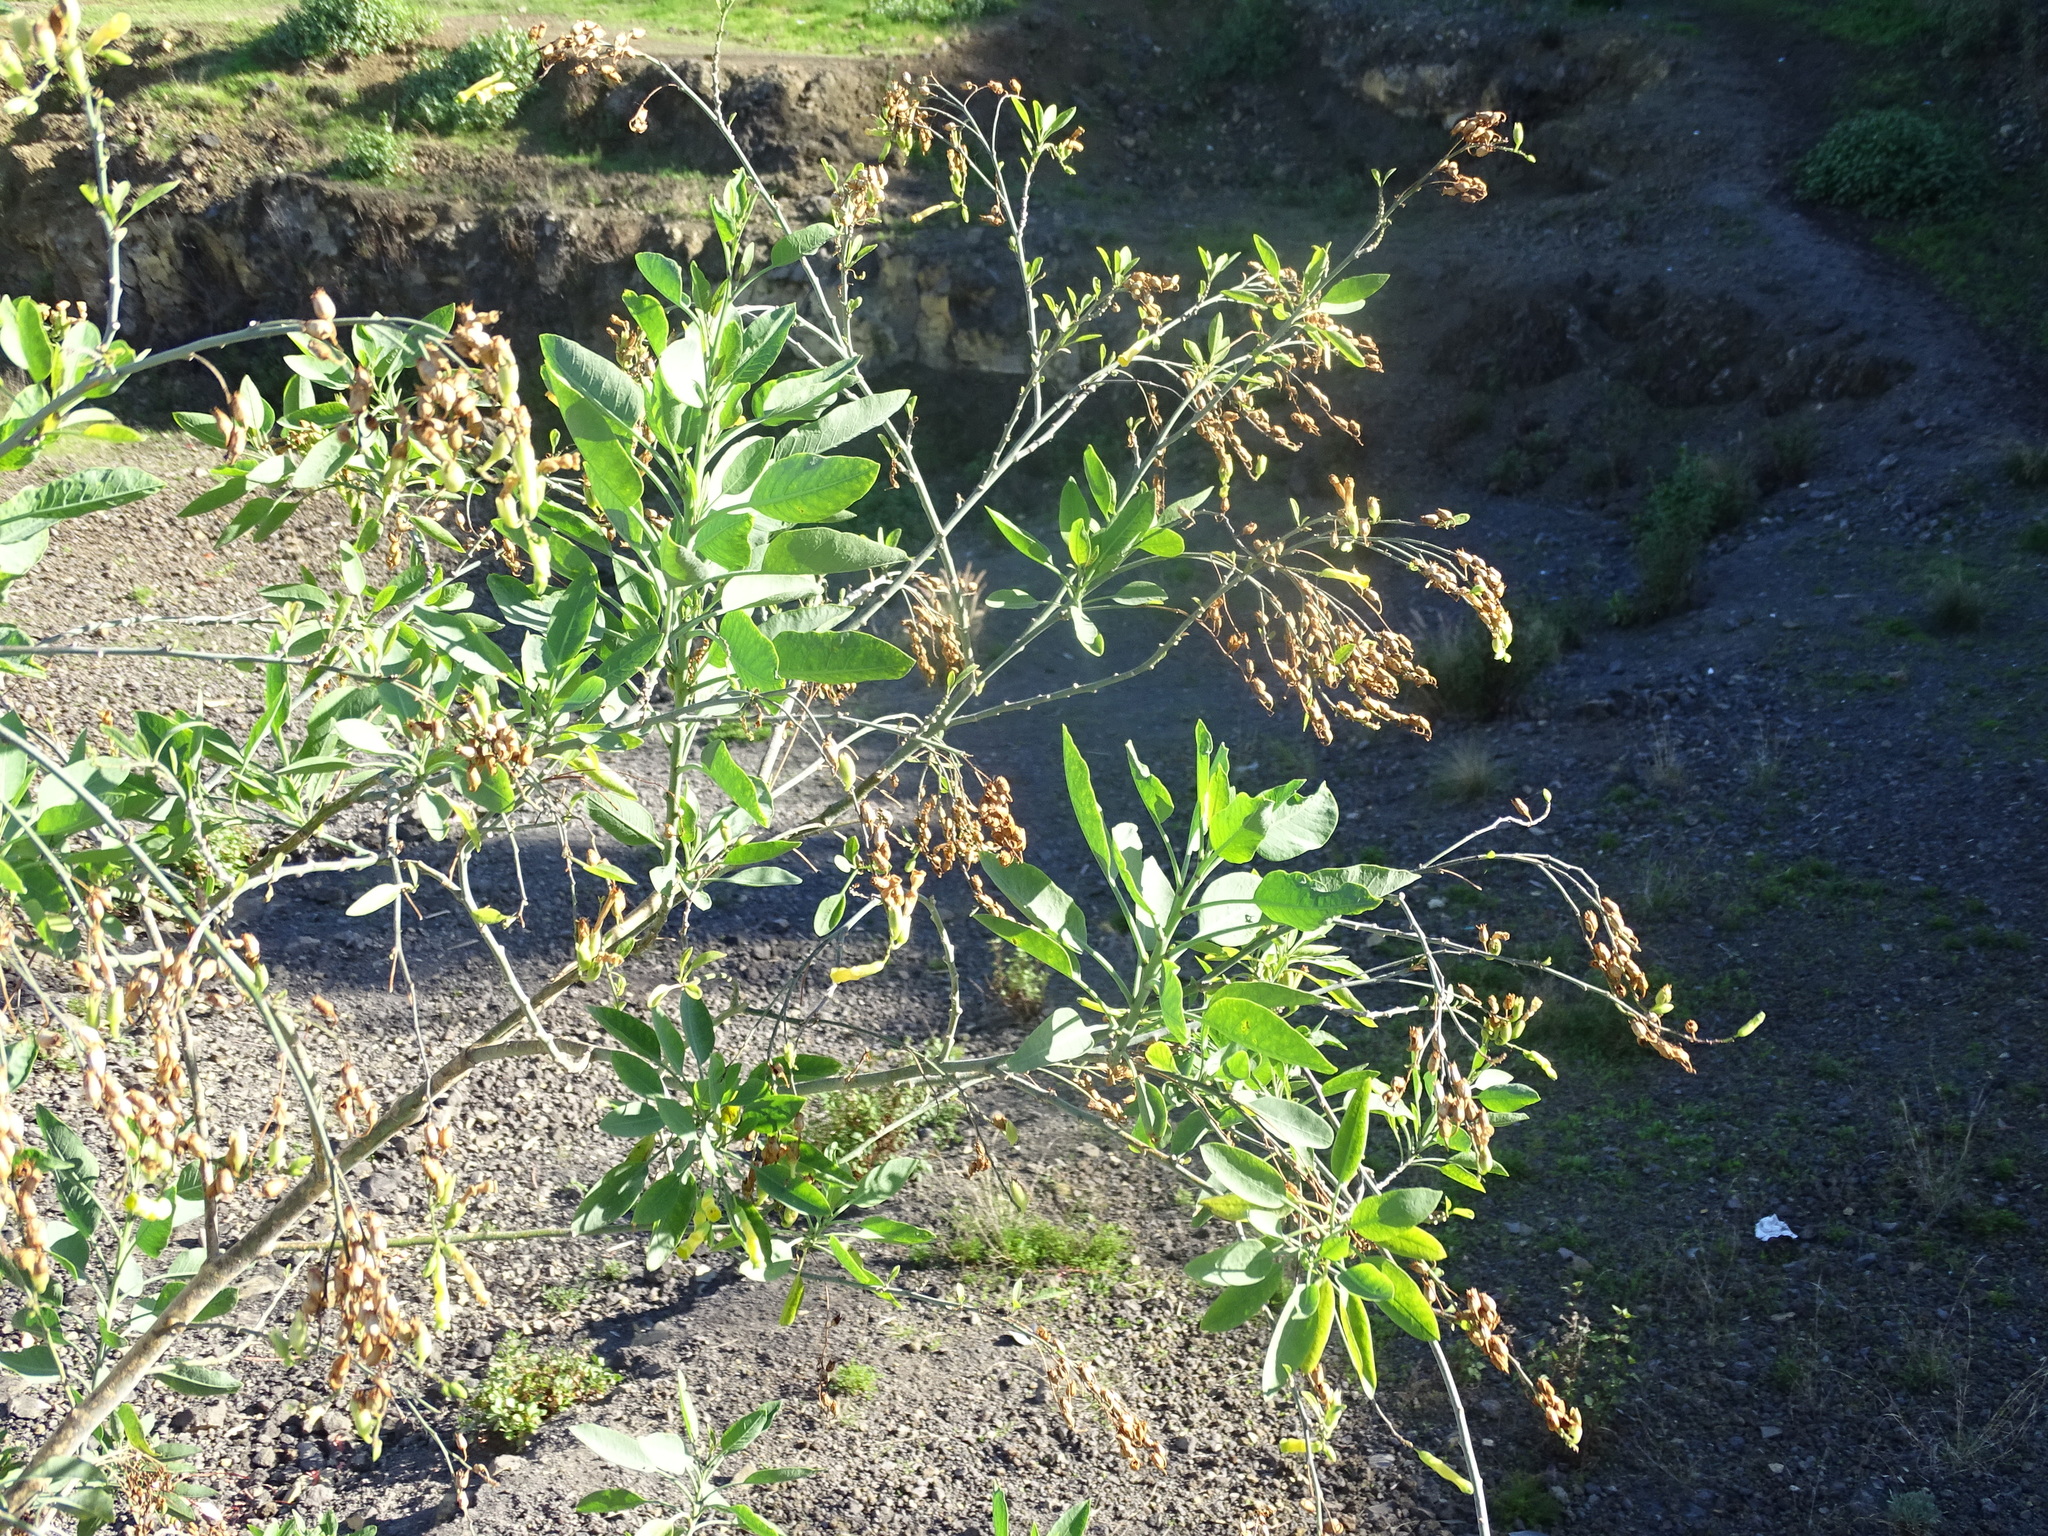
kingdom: Plantae
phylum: Tracheophyta
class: Magnoliopsida
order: Solanales
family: Solanaceae
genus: Nicotiana
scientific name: Nicotiana glauca
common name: Tree tobacco
